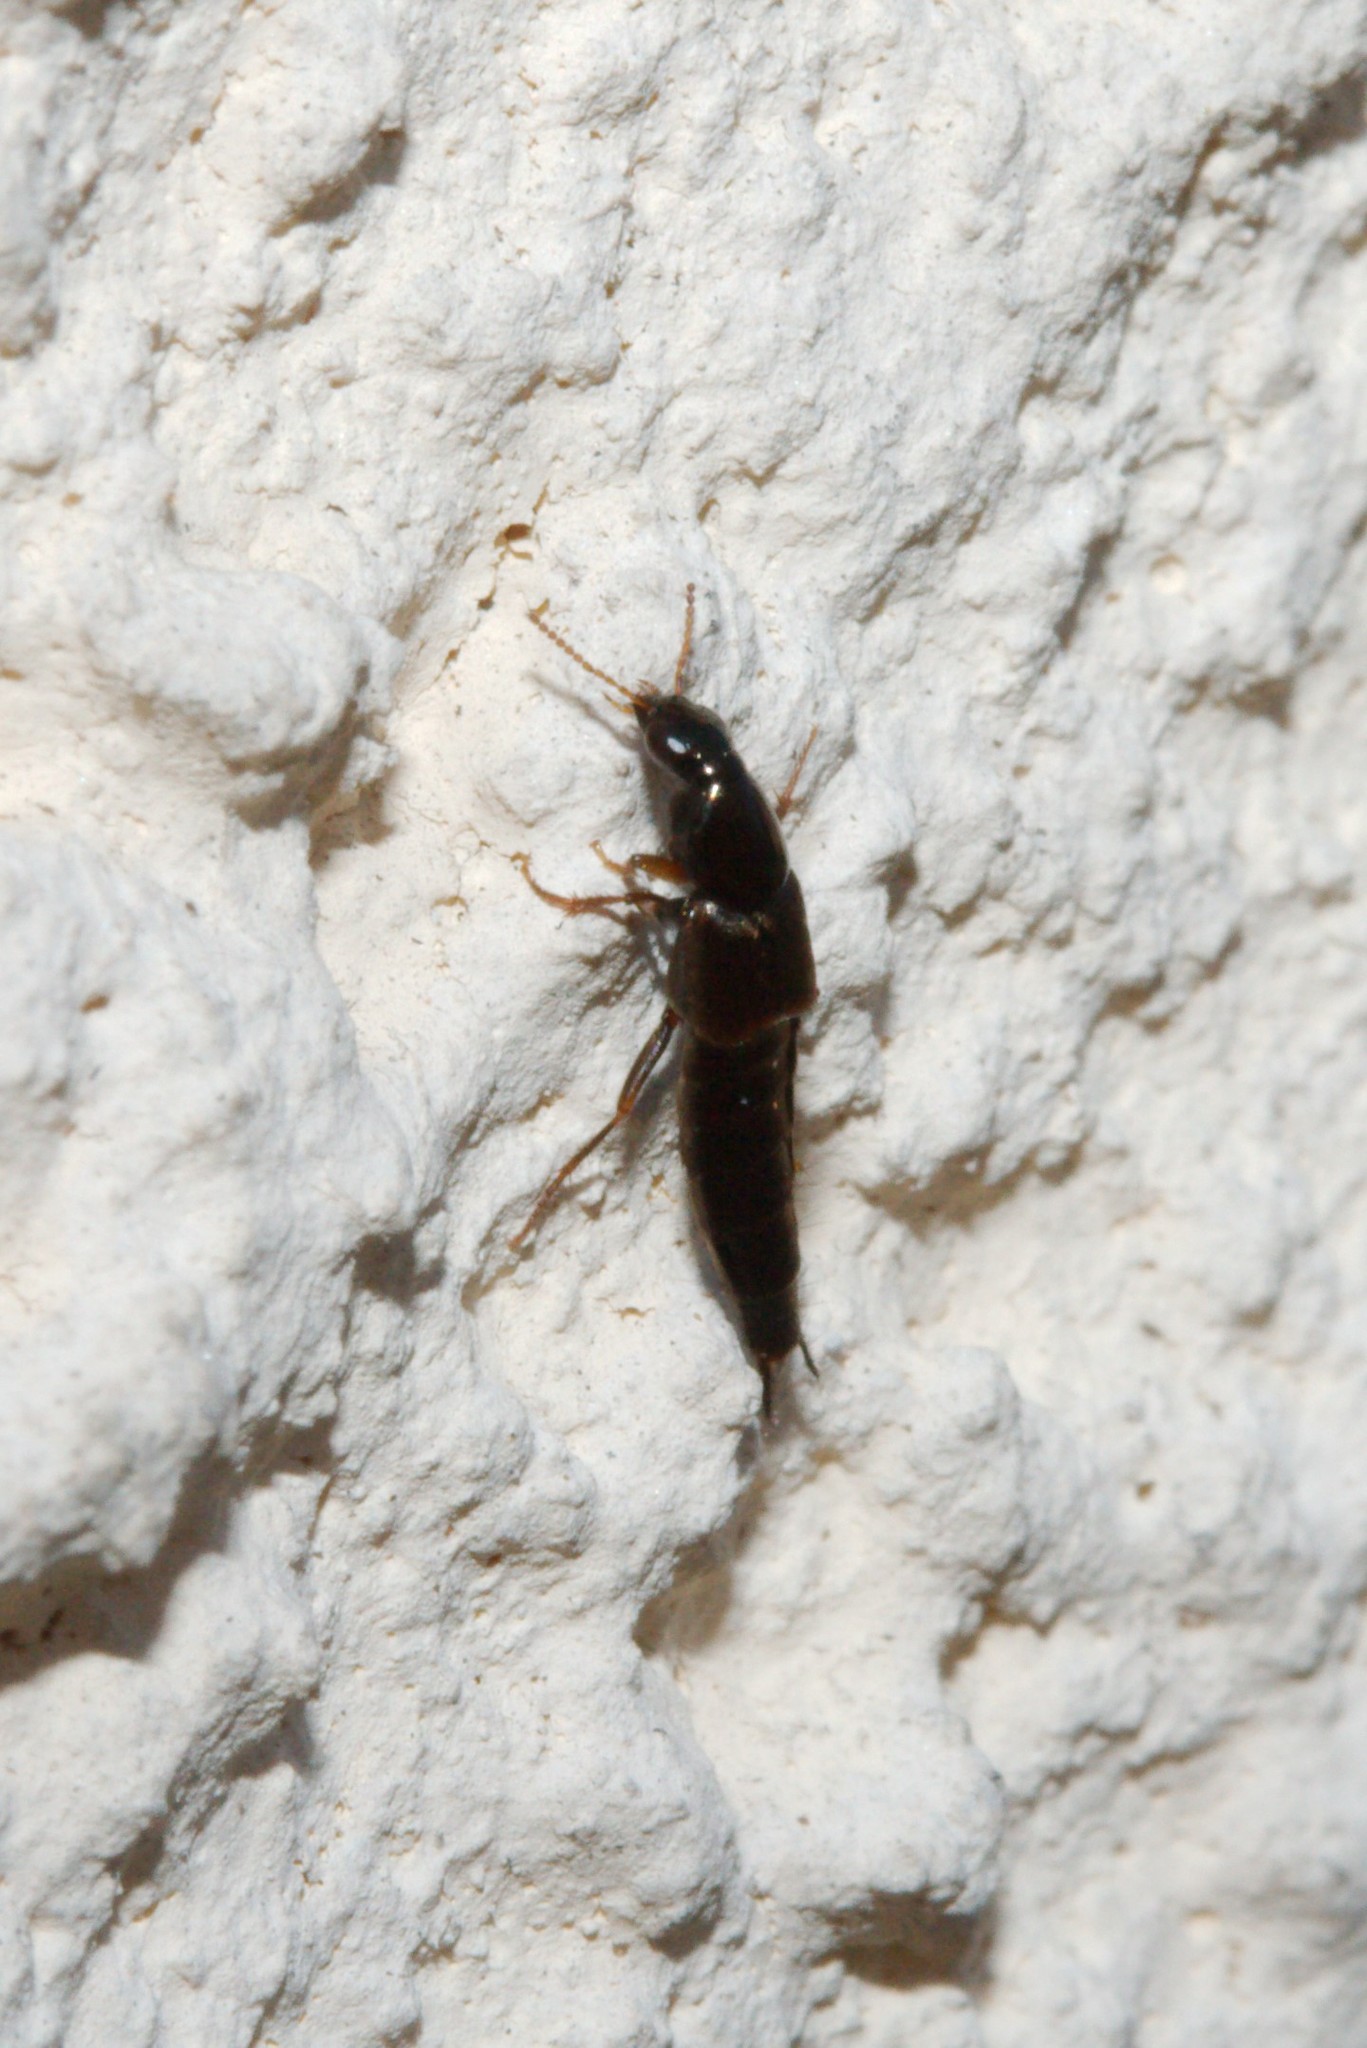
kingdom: Animalia
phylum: Arthropoda
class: Insecta
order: Coleoptera
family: Staphylinidae
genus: Quedius
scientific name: Quedius semiaeneus
